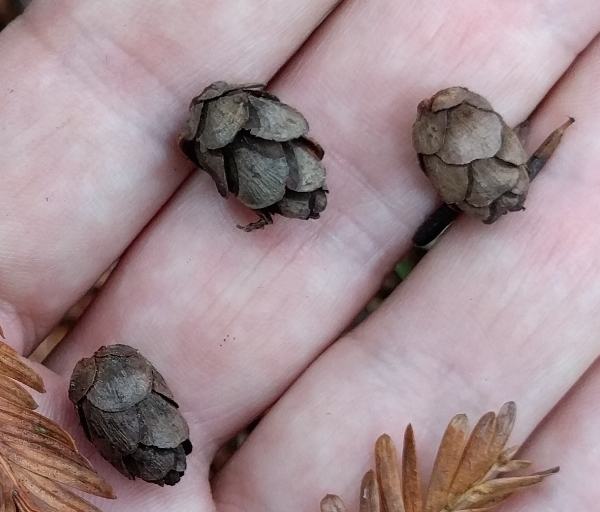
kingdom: Plantae
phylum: Tracheophyta
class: Pinopsida
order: Pinales
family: Pinaceae
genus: Tsuga
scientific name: Tsuga heterophylla
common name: Western hemlock
